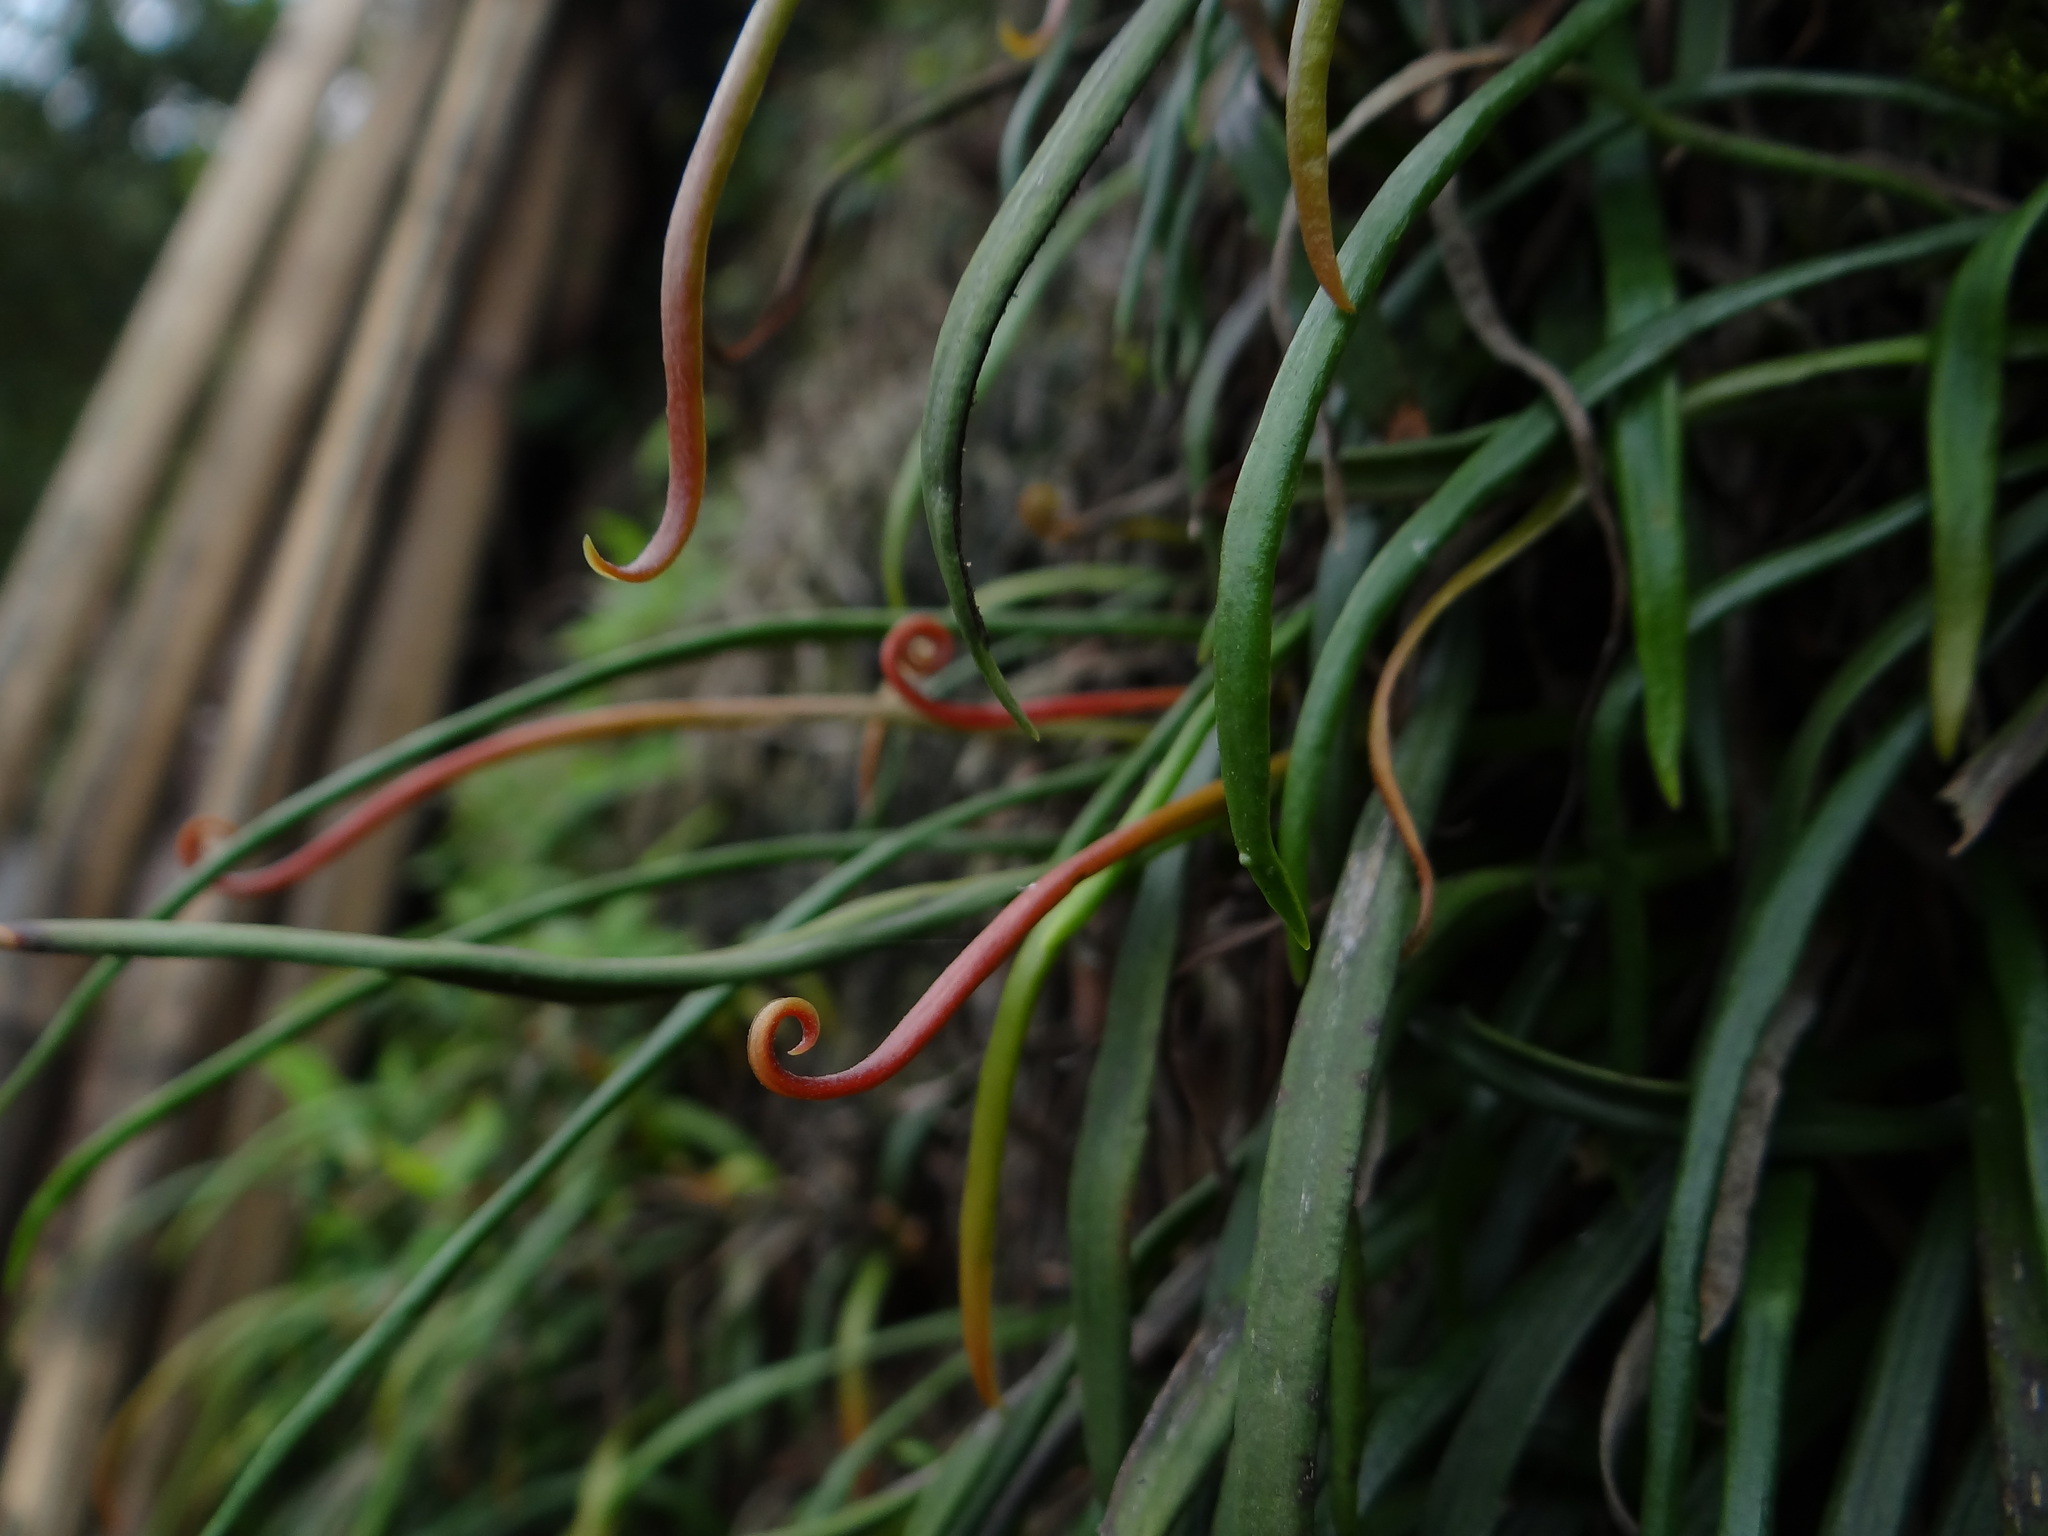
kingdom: Plantae
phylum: Tracheophyta
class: Polypodiopsida
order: Polypodiales
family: Pteridaceae
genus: Haplopteris
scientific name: Haplopteris anguste-elongata
